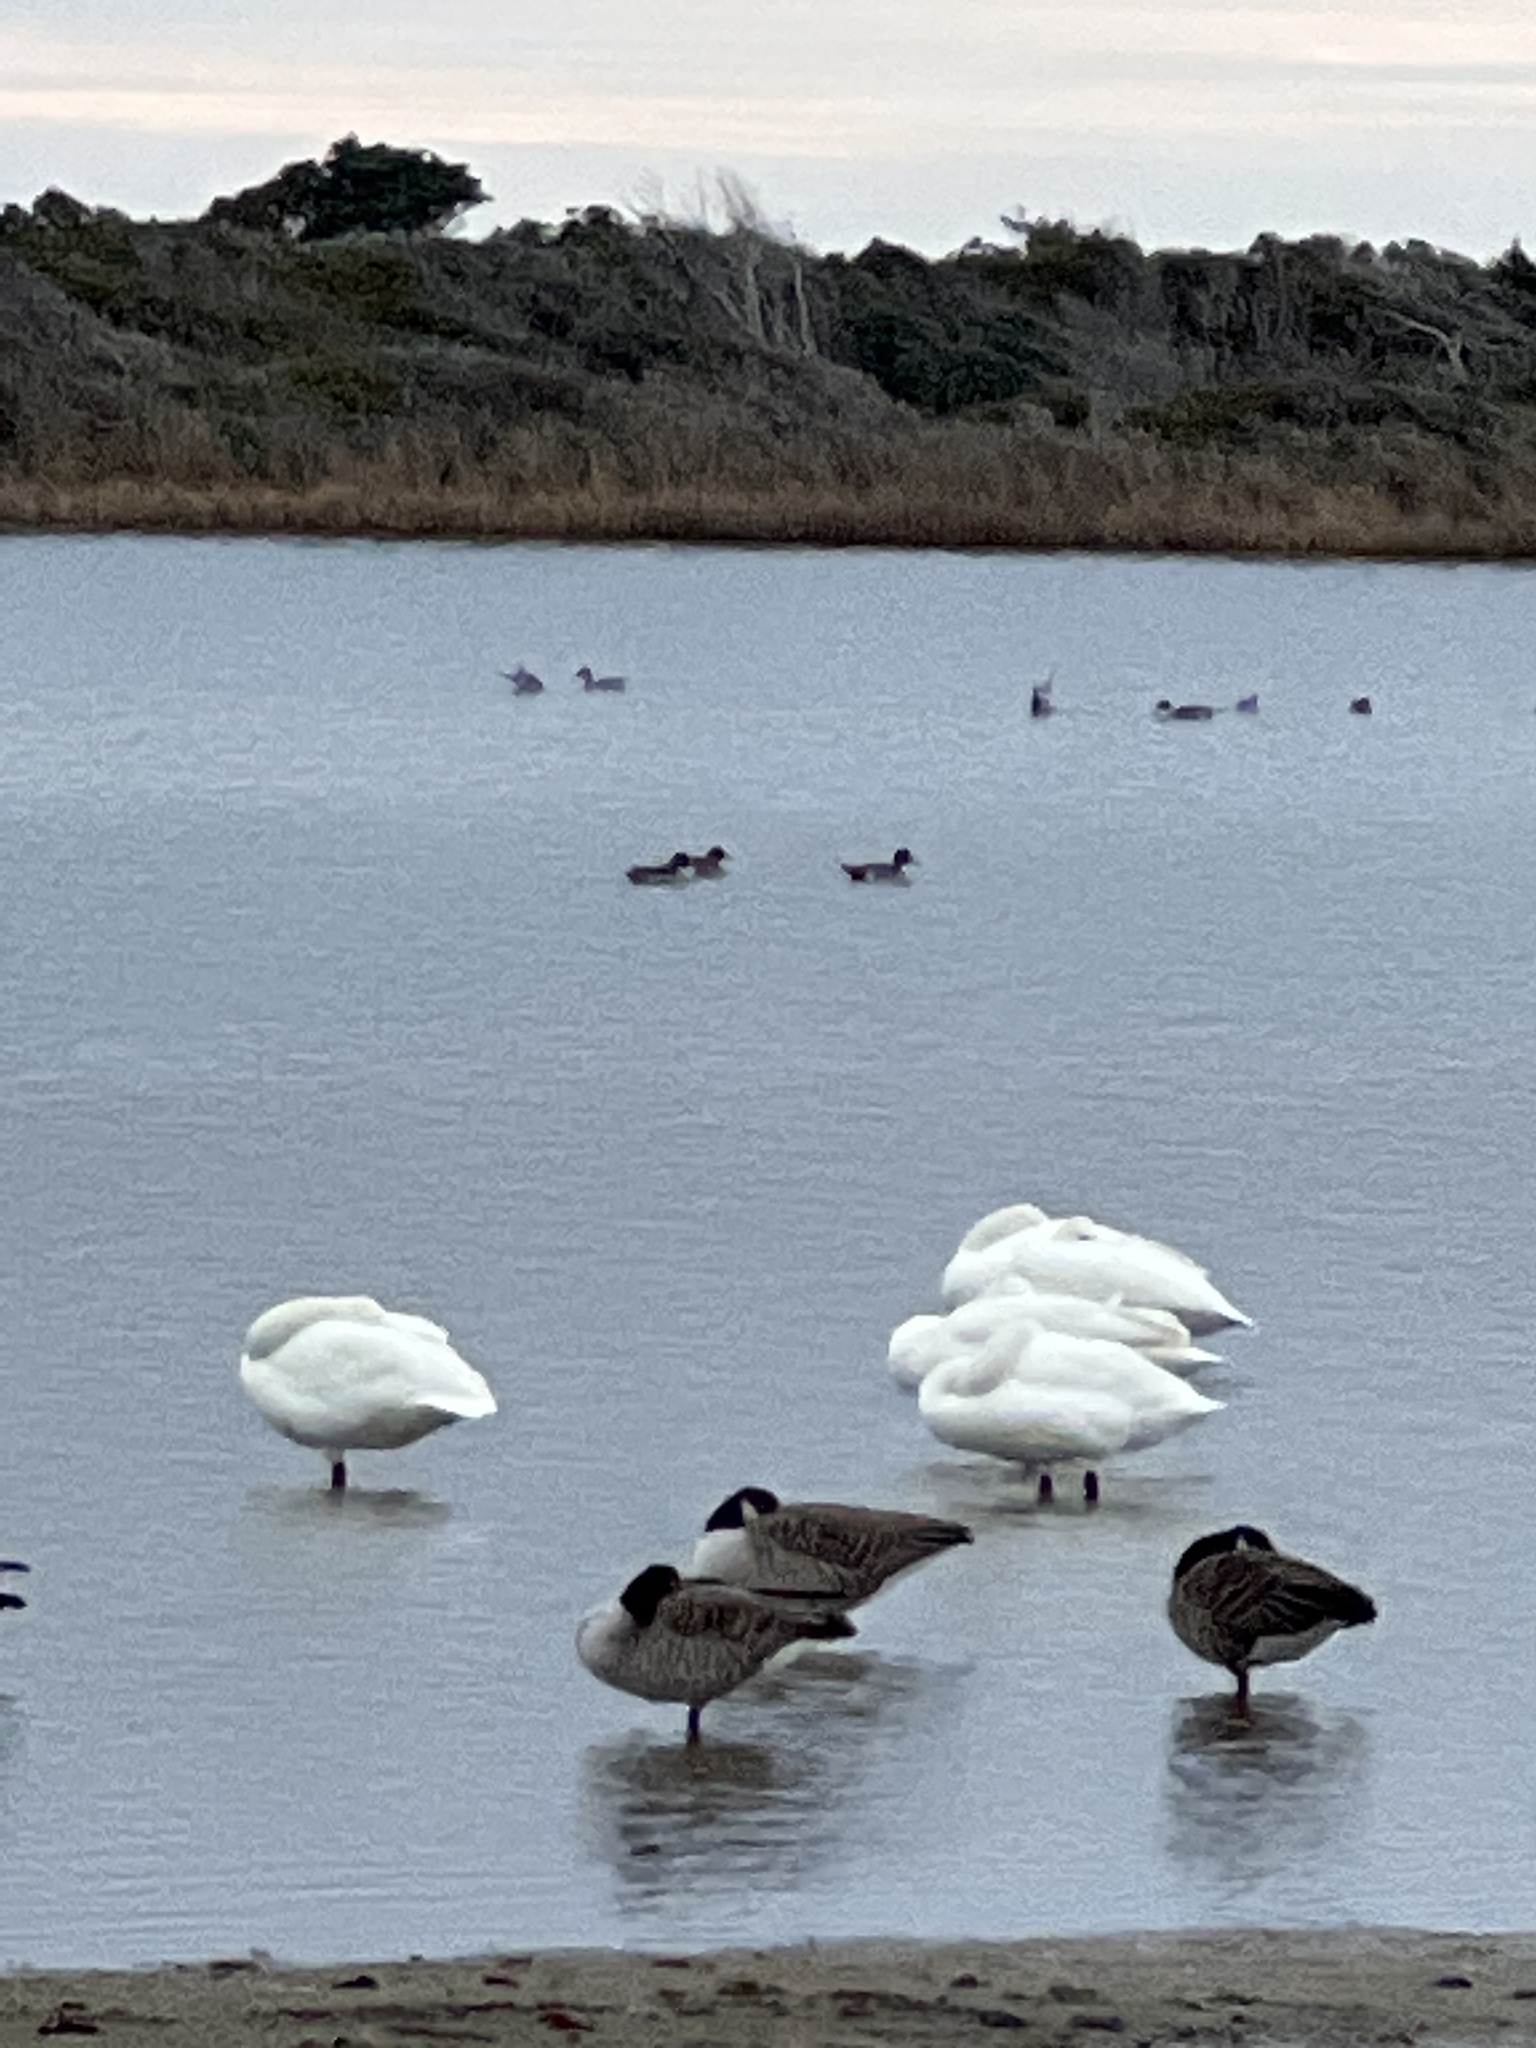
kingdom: Animalia
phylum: Chordata
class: Aves
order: Anseriformes
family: Anatidae
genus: Anas
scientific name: Anas acuta
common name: Northern pintail
